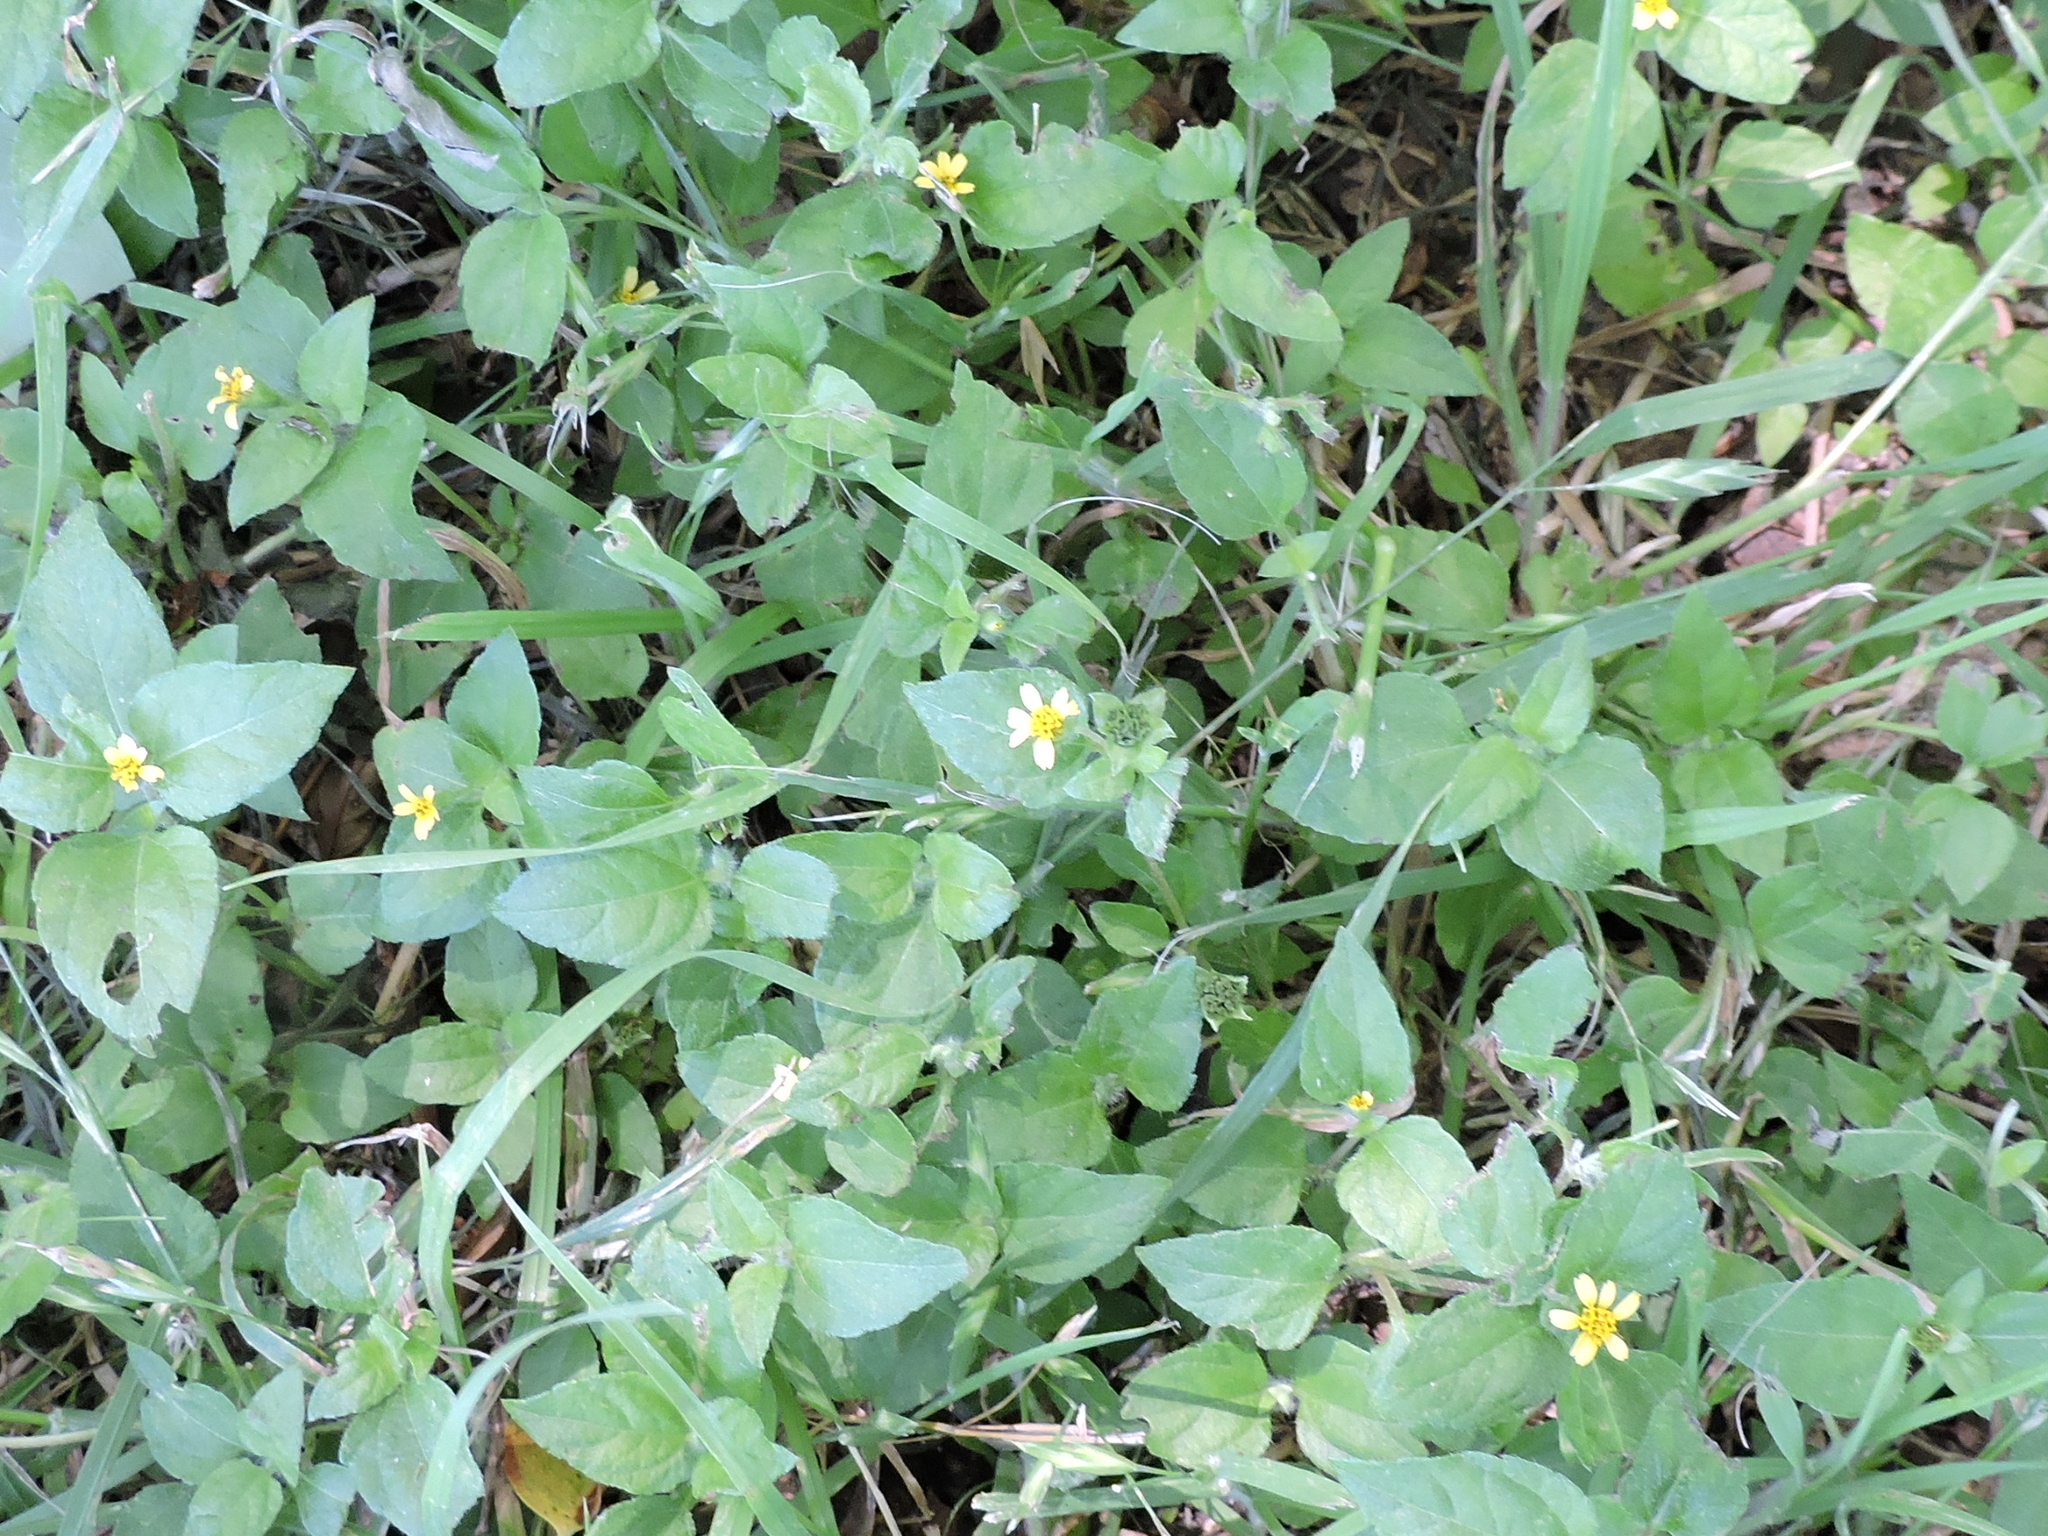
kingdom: Plantae
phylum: Tracheophyta
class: Magnoliopsida
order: Asterales
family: Asteraceae
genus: Calyptocarpus
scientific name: Calyptocarpus vialis
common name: Straggler daisy
